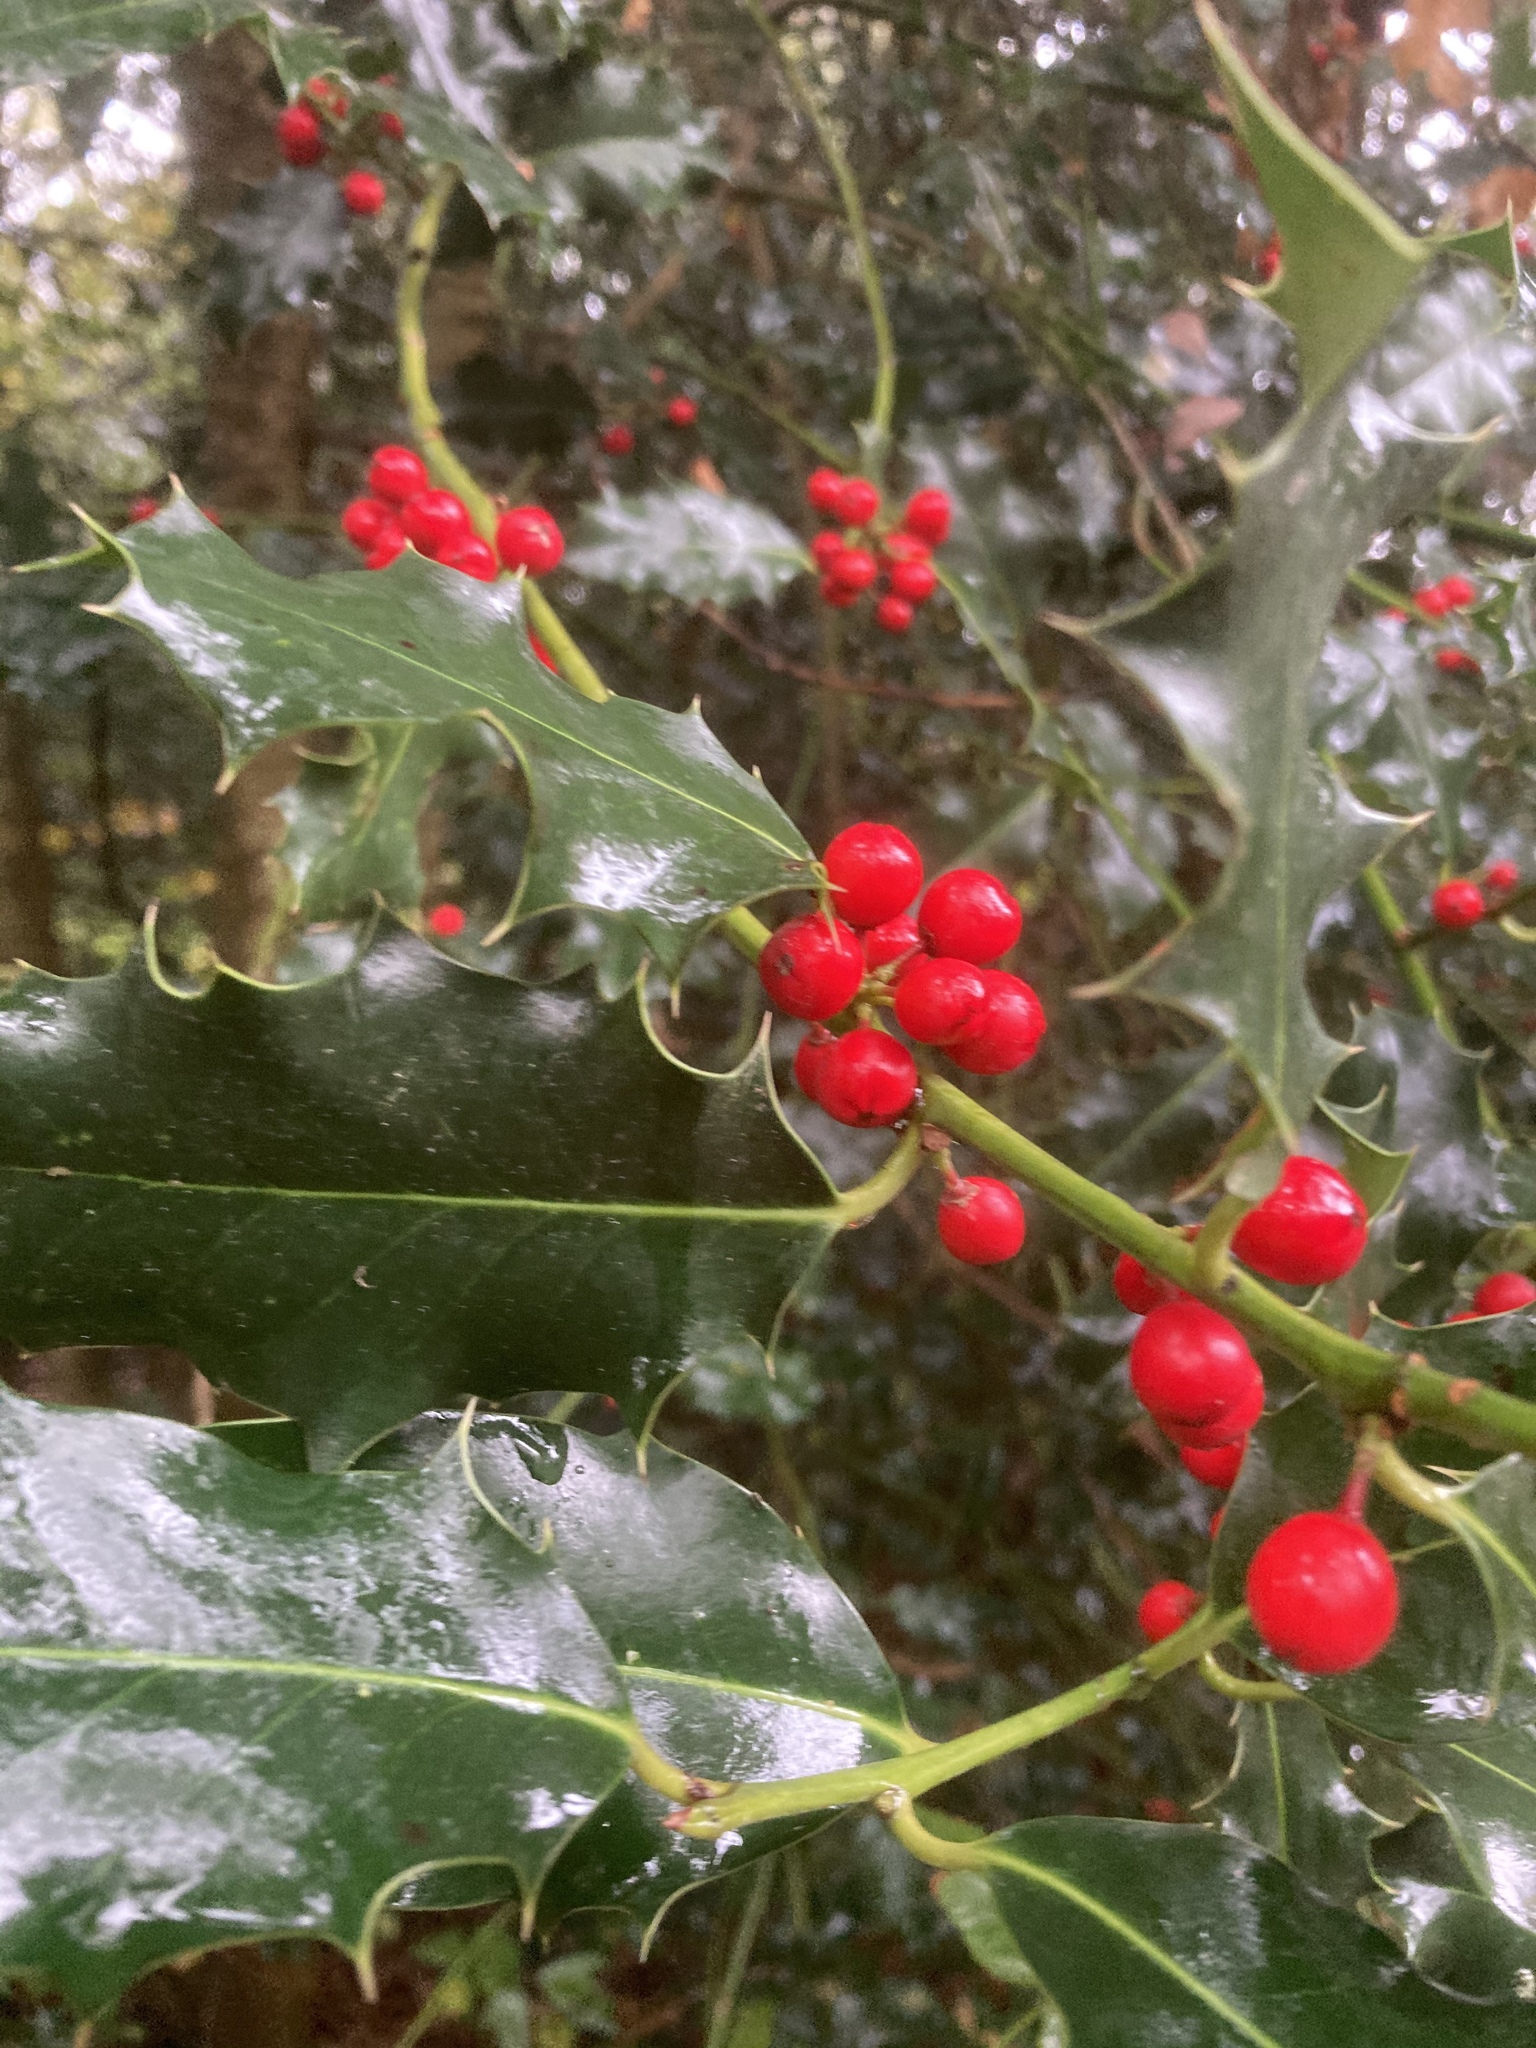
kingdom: Plantae
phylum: Tracheophyta
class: Magnoliopsida
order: Aquifoliales
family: Aquifoliaceae
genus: Ilex
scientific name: Ilex aquifolium
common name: English holly
